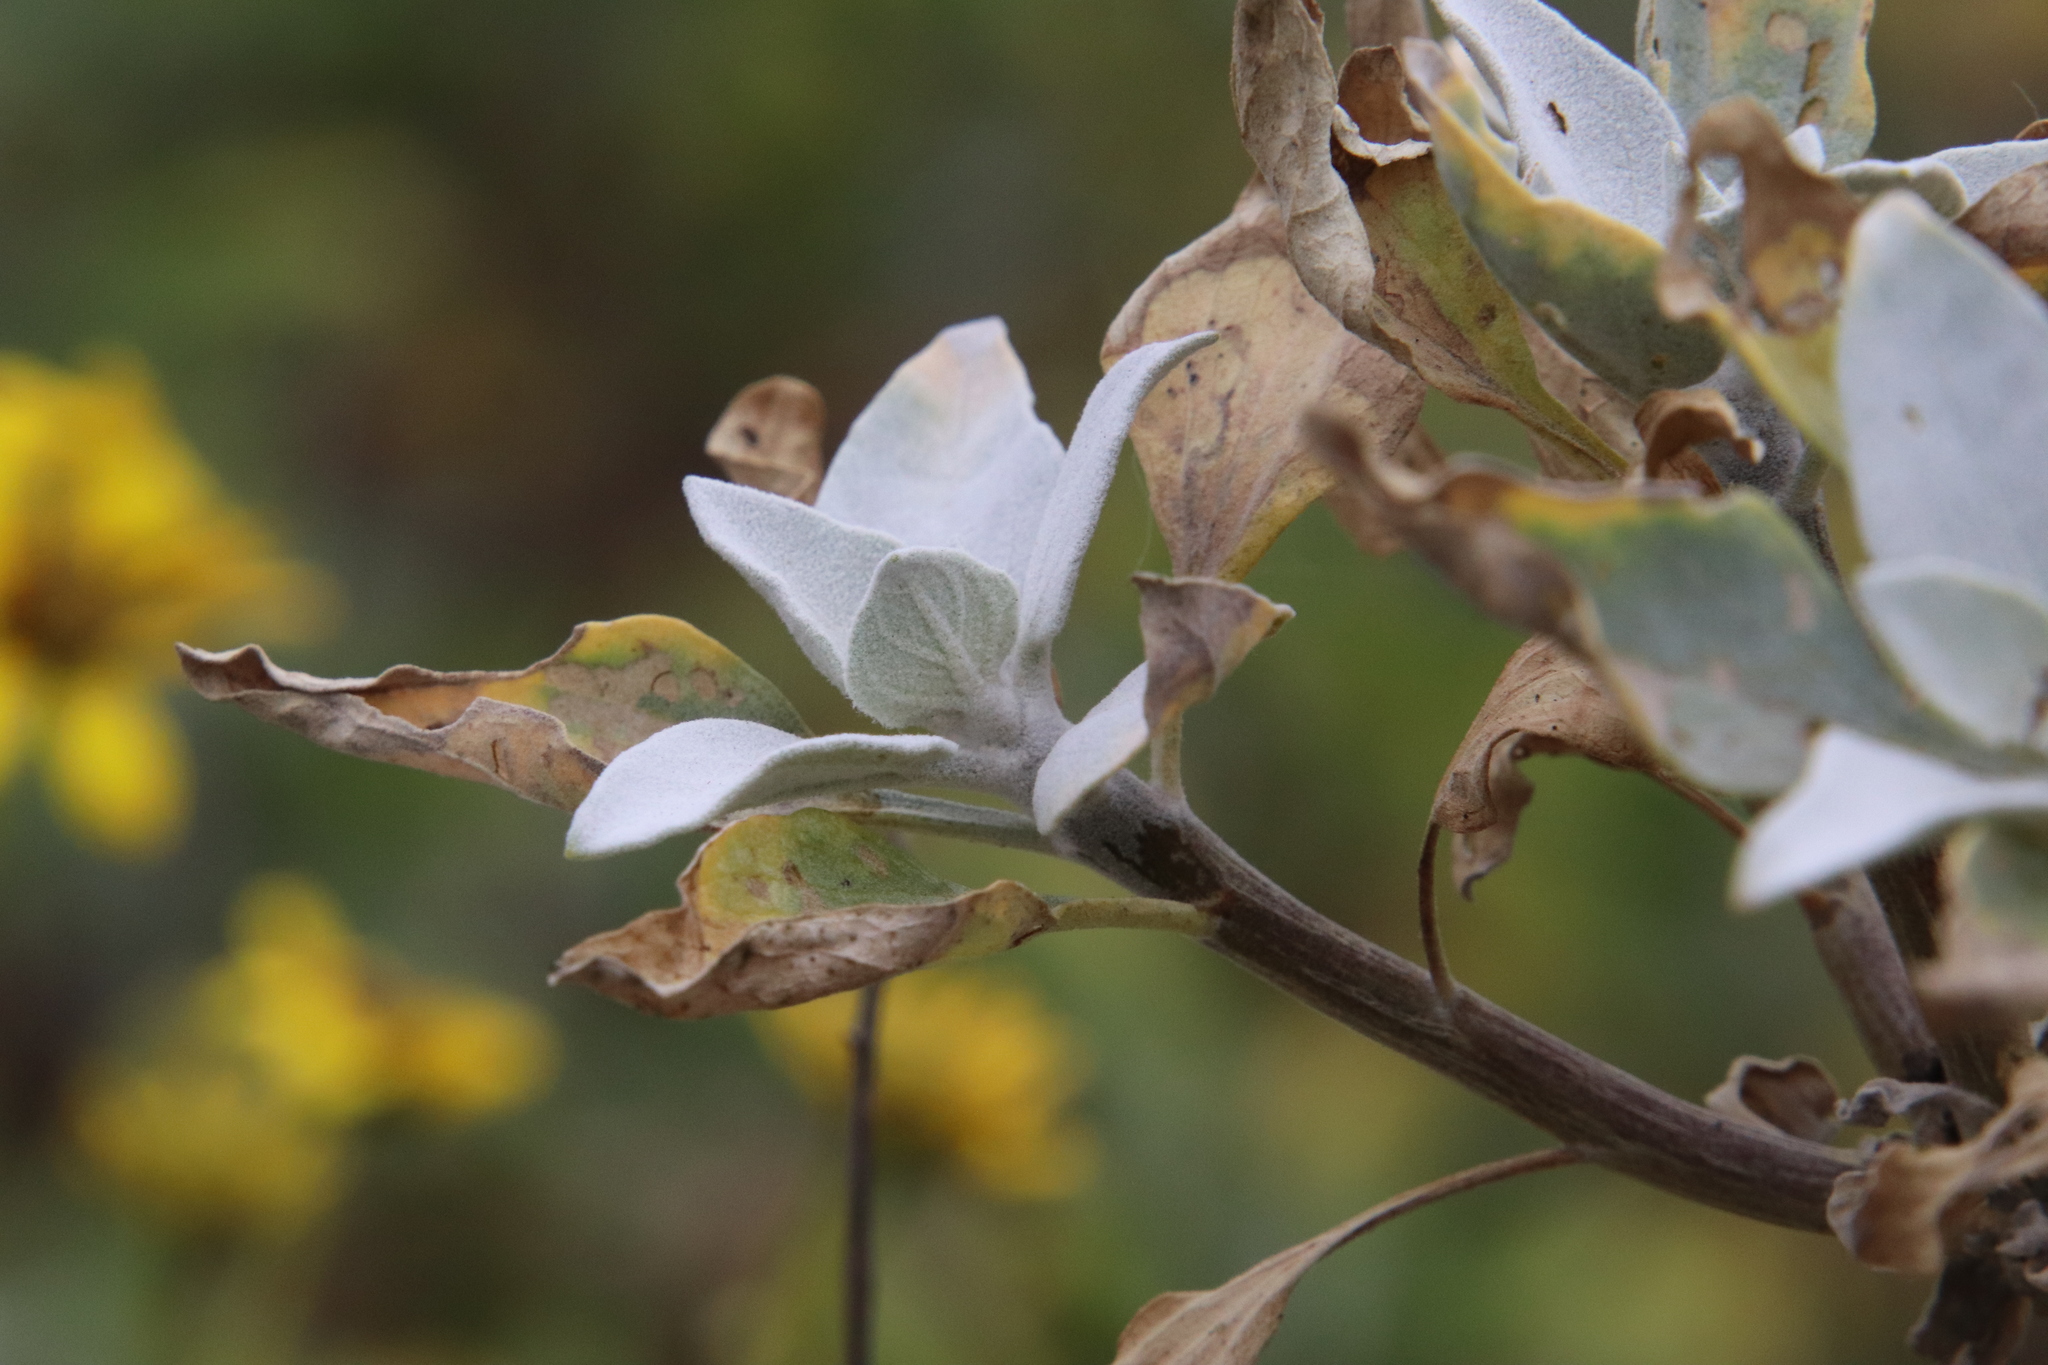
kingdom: Plantae
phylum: Tracheophyta
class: Magnoliopsida
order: Asterales
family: Asteraceae
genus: Encelia
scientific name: Encelia
